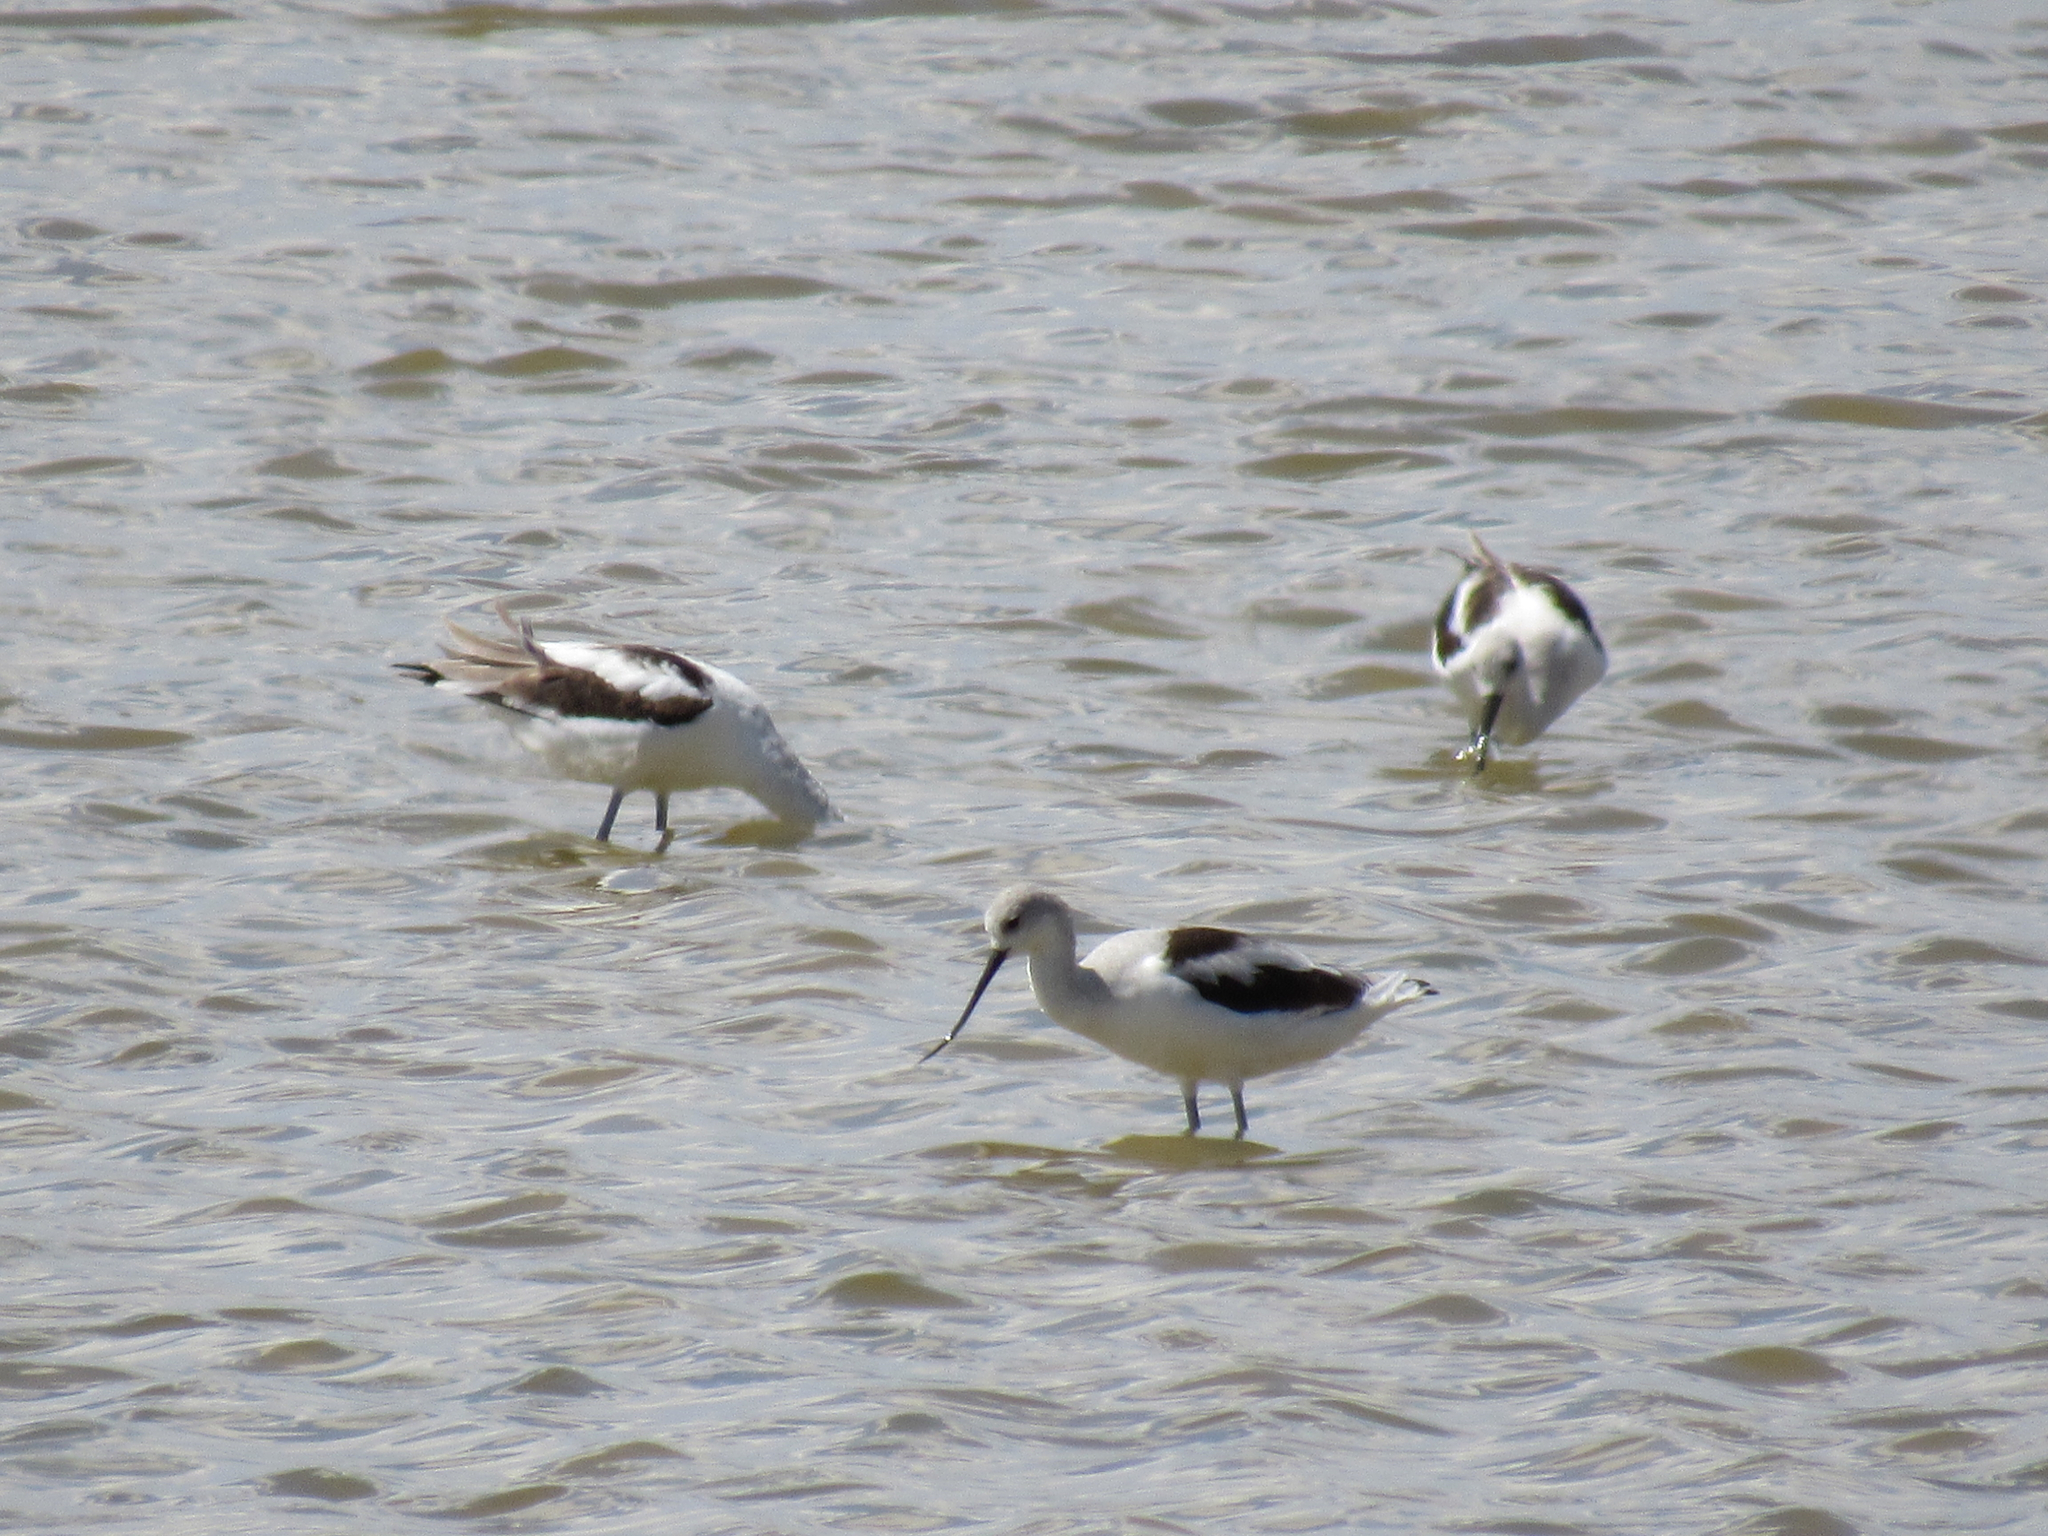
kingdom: Animalia
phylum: Chordata
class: Aves
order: Charadriiformes
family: Recurvirostridae
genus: Recurvirostra
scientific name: Recurvirostra americana
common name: American avocet
